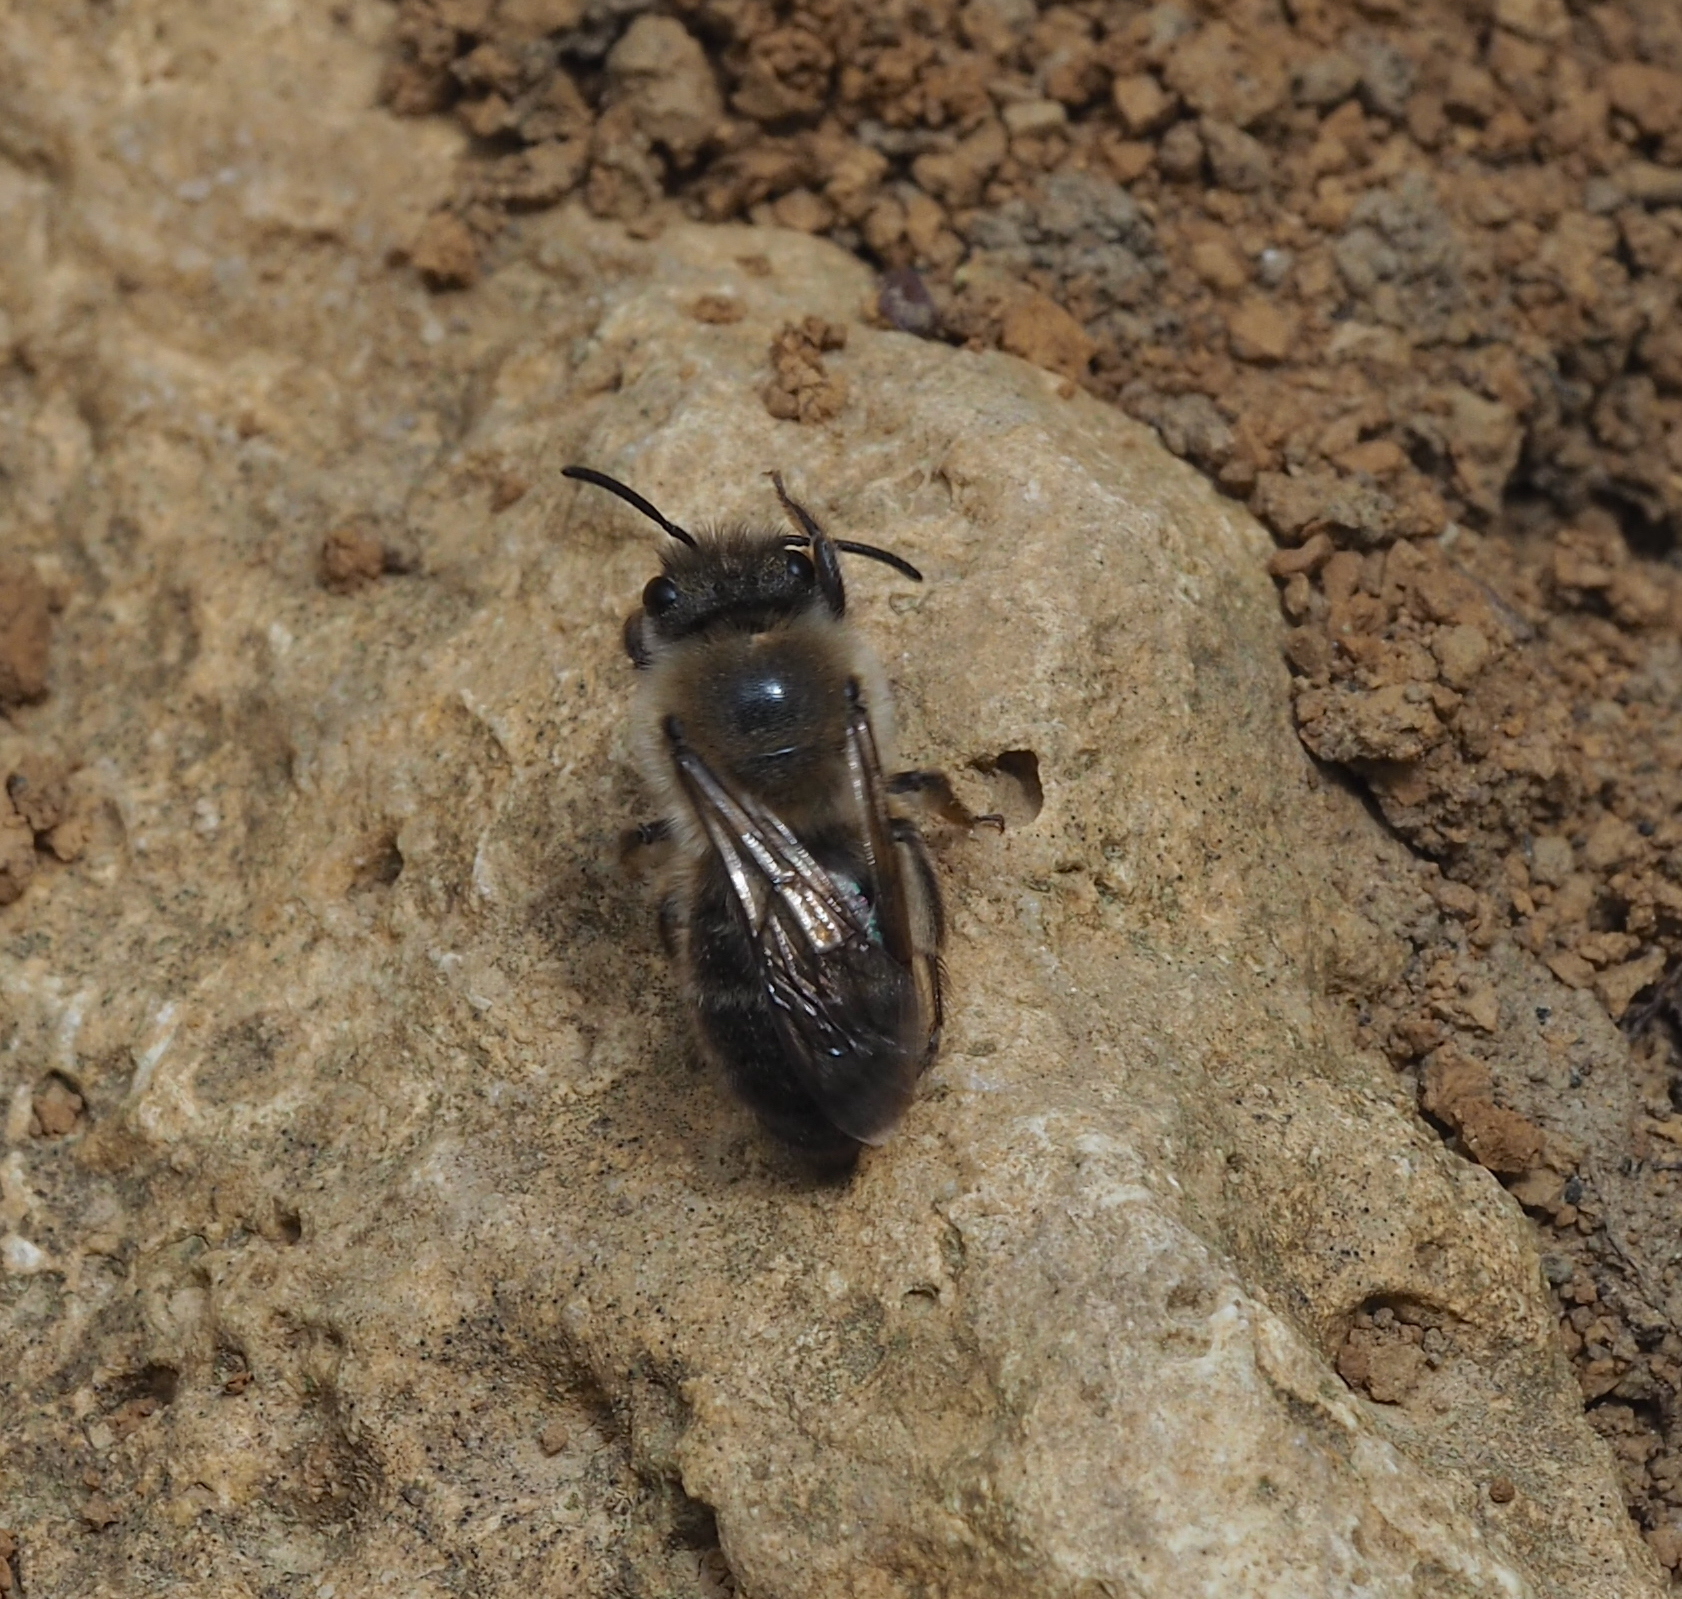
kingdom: Animalia
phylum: Arthropoda
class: Insecta
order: Hymenoptera
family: Colletidae
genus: Colletes
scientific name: Colletes cunicularius
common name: Early colletes
